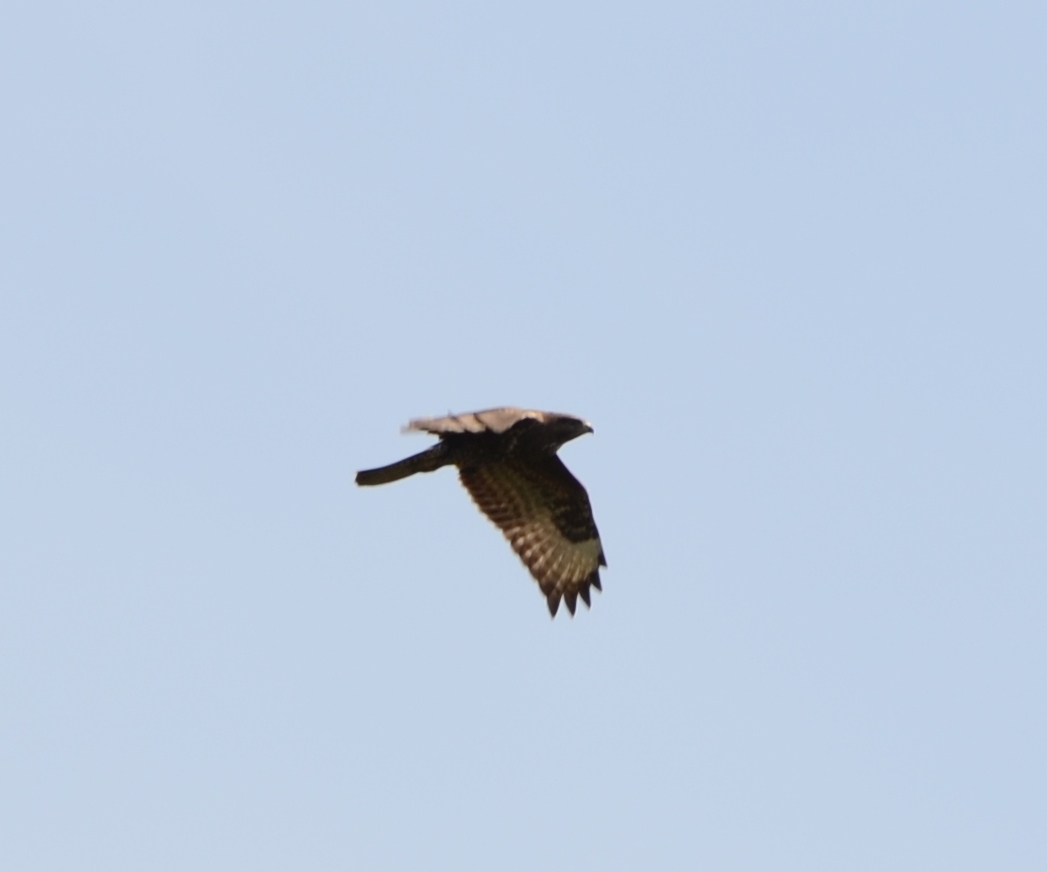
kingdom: Animalia
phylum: Chordata
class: Aves
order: Accipitriformes
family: Accipitridae
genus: Buteo
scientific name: Buteo buteo
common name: Common buzzard
